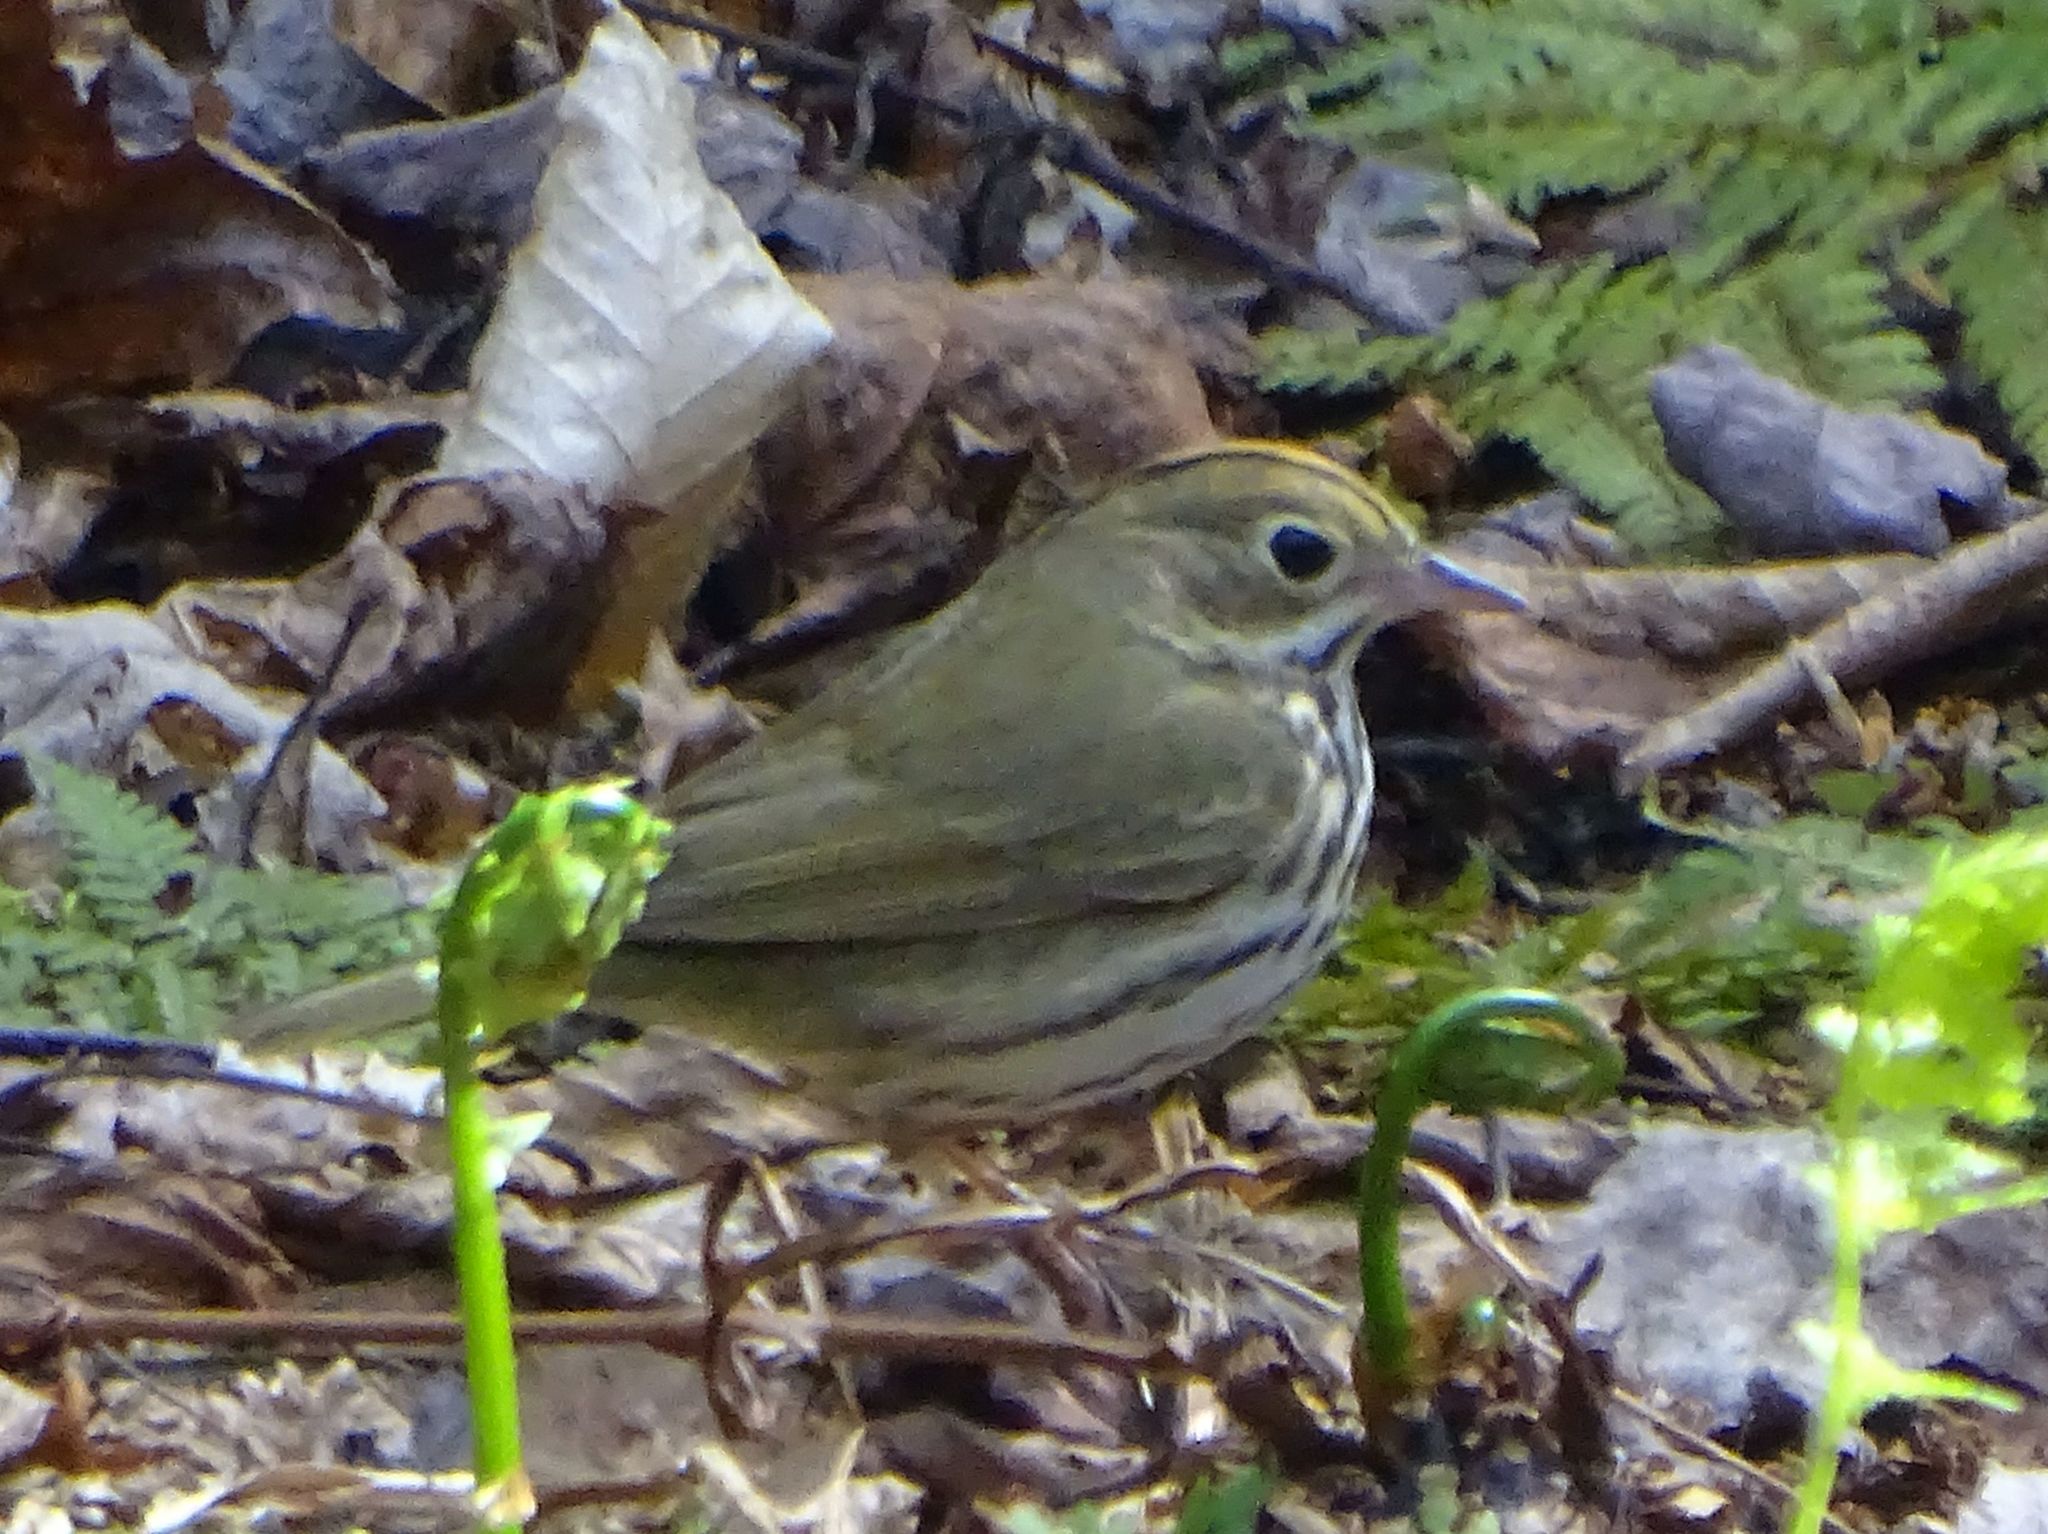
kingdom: Animalia
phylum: Chordata
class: Aves
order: Passeriformes
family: Parulidae
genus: Seiurus
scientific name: Seiurus aurocapilla
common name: Ovenbird
